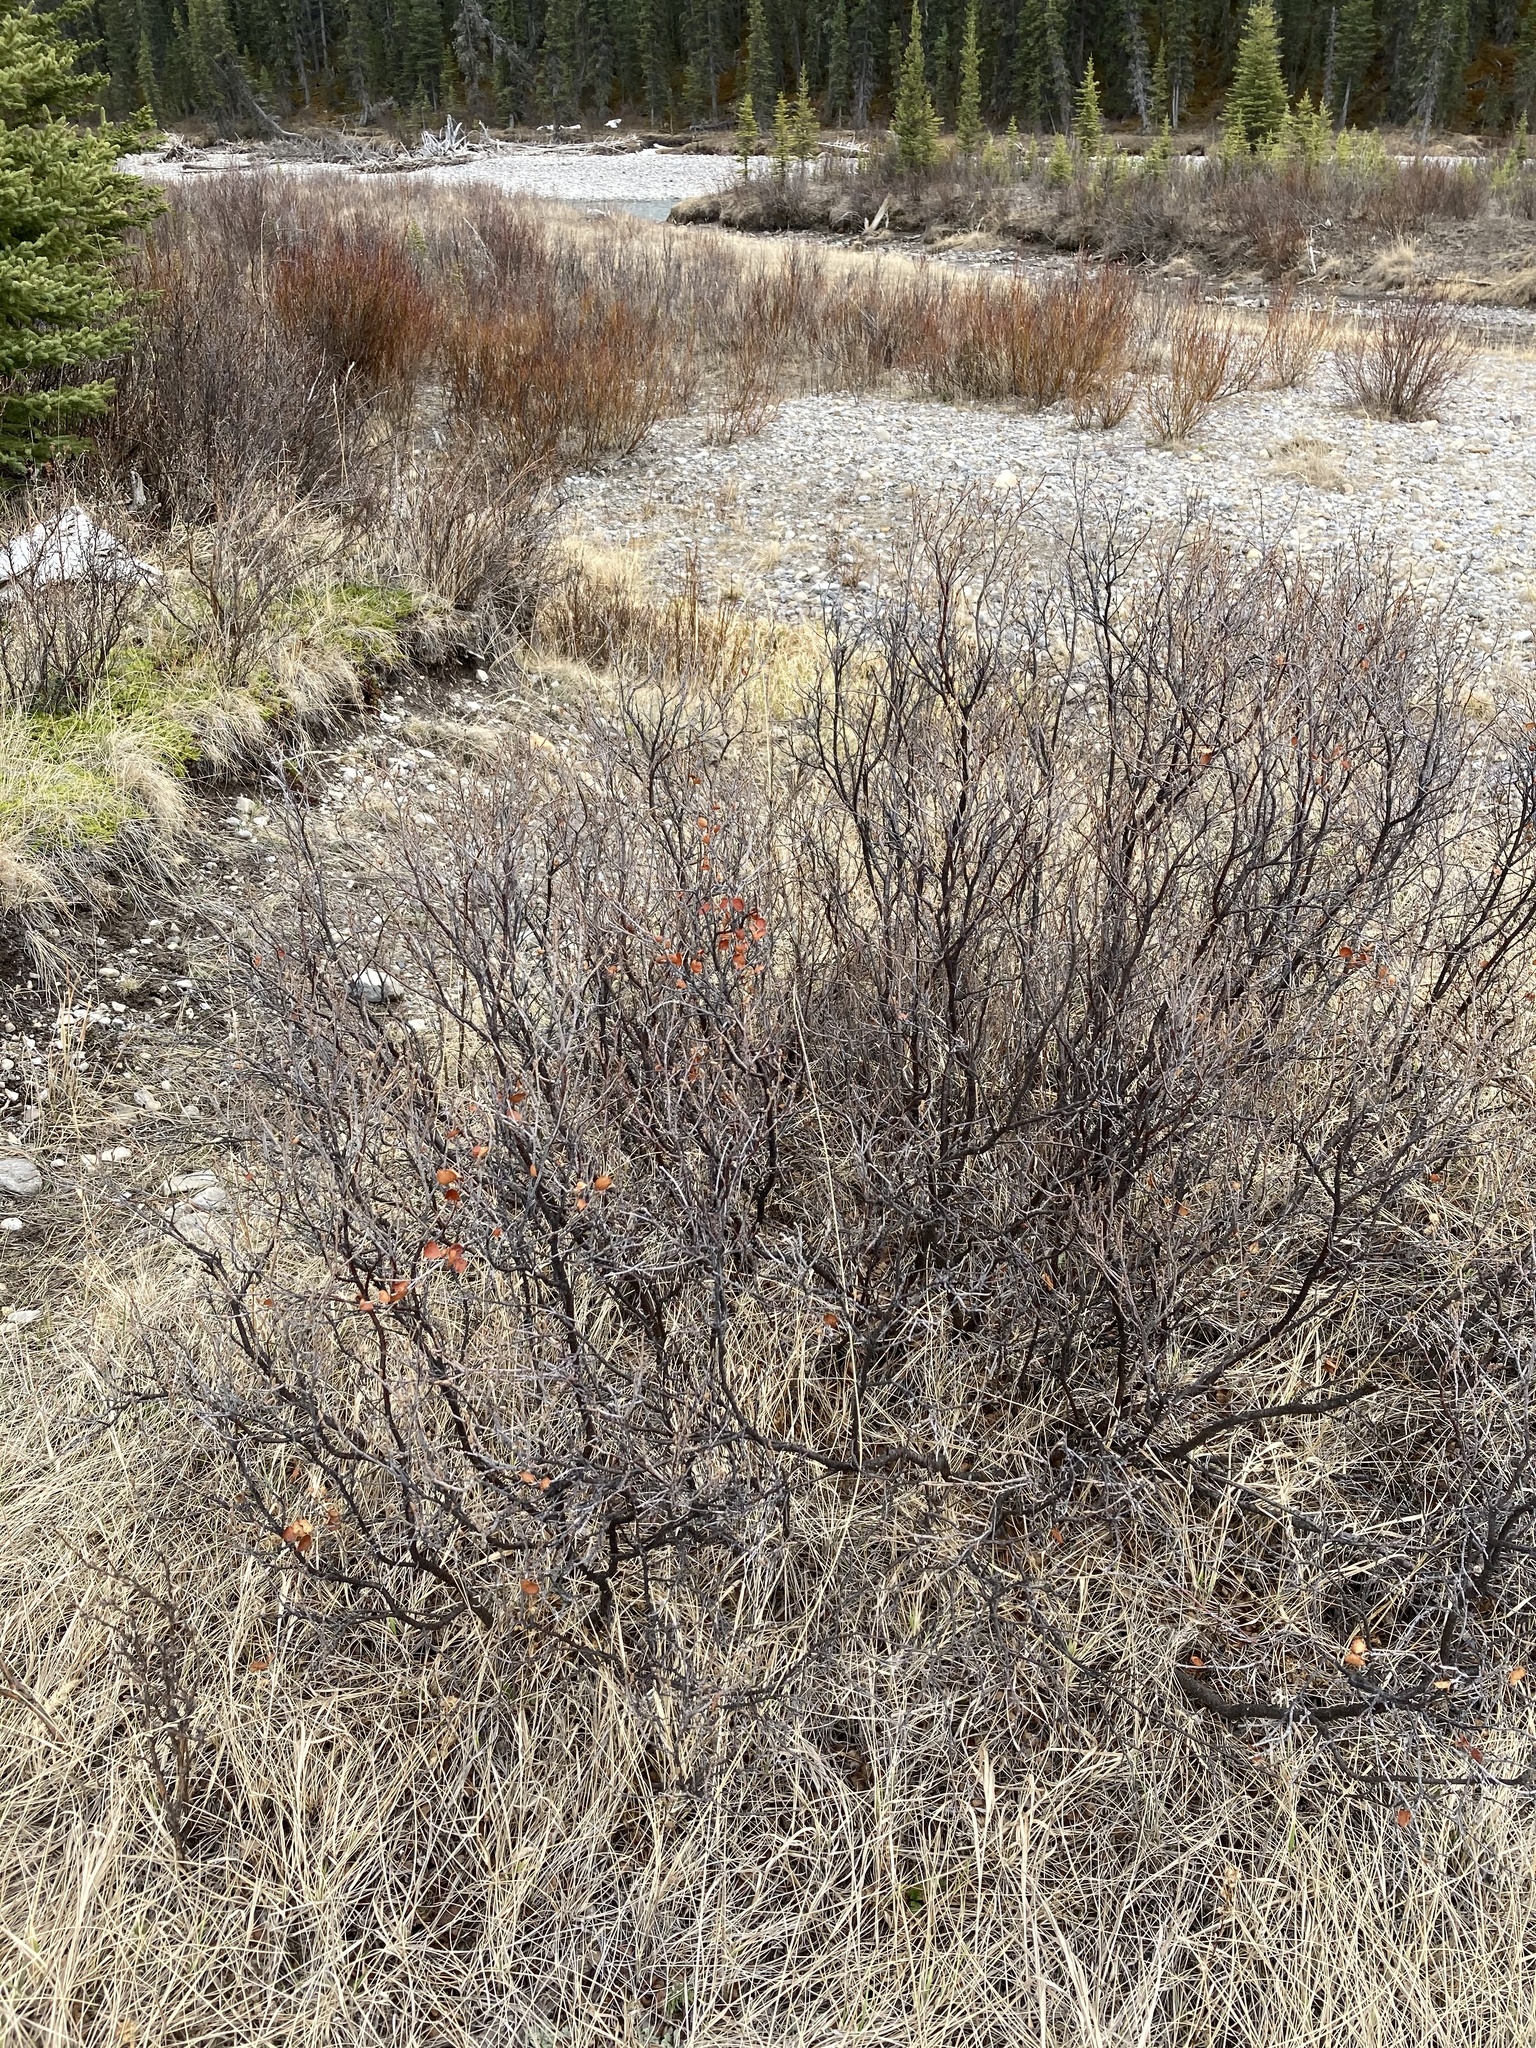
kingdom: Plantae
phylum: Tracheophyta
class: Magnoliopsida
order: Fagales
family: Betulaceae
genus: Betula
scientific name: Betula nana
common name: Arctic dwarf birch
